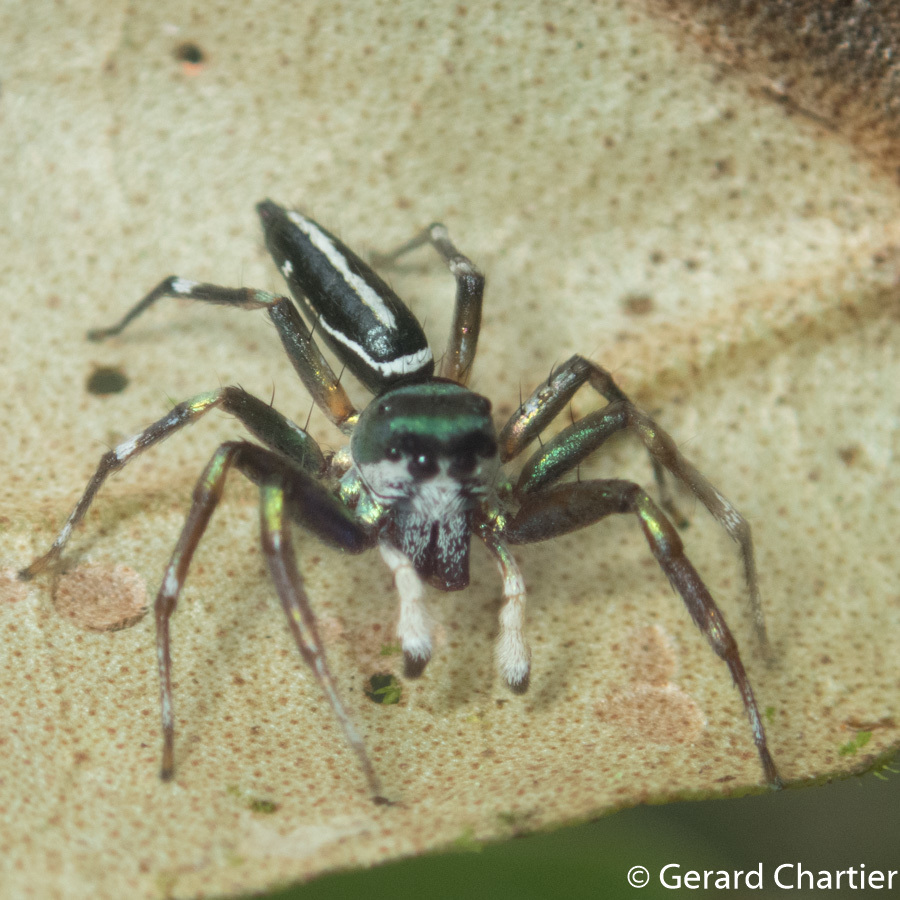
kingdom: Animalia
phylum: Arthropoda
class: Arachnida
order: Araneae
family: Salticidae
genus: Cosmophasis
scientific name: Cosmophasis thalassina
